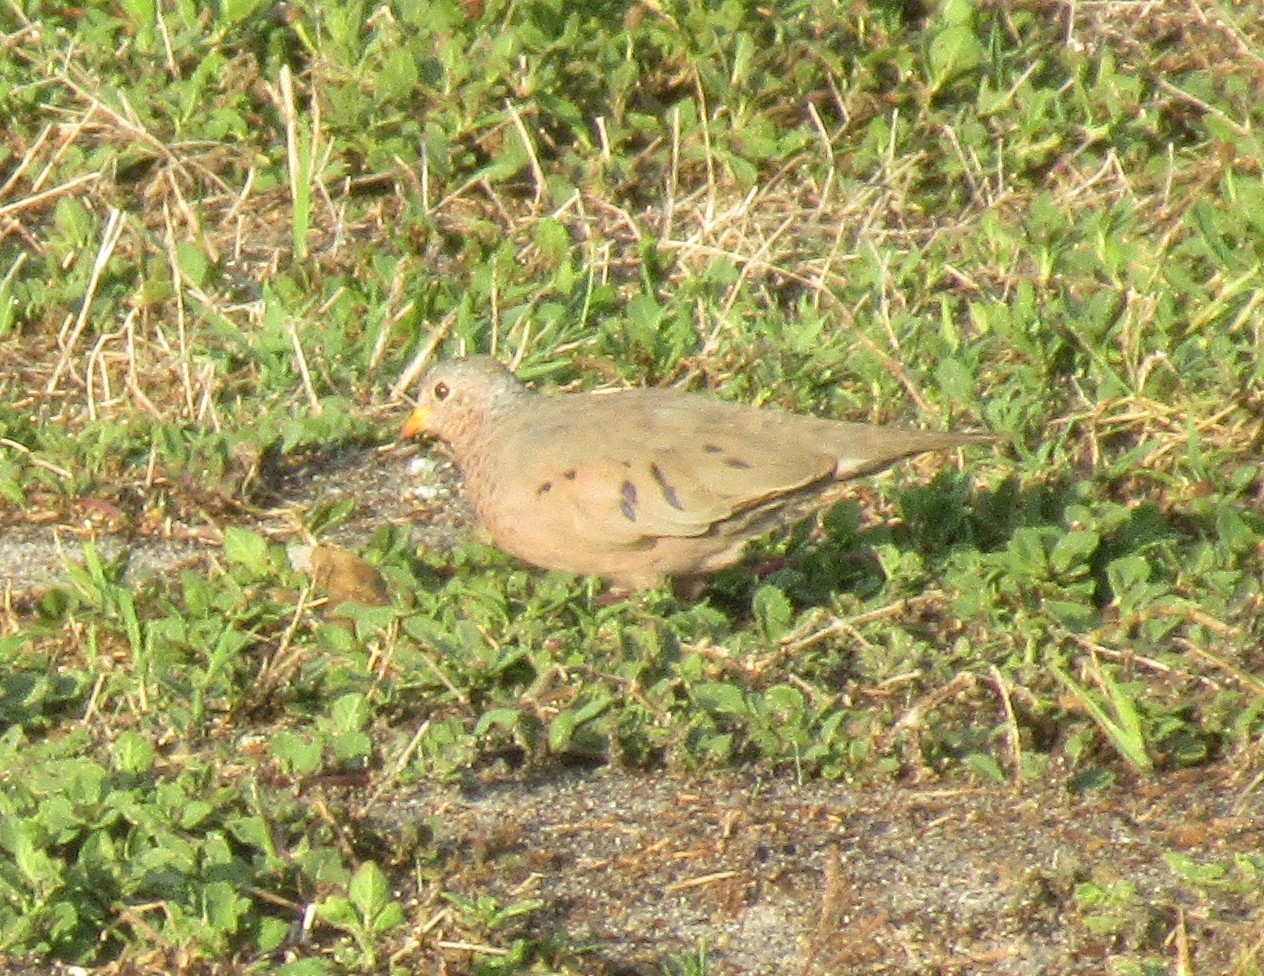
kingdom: Animalia
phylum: Chordata
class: Aves
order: Columbiformes
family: Columbidae
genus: Columbina
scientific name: Columbina passerina
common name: Common ground-dove
